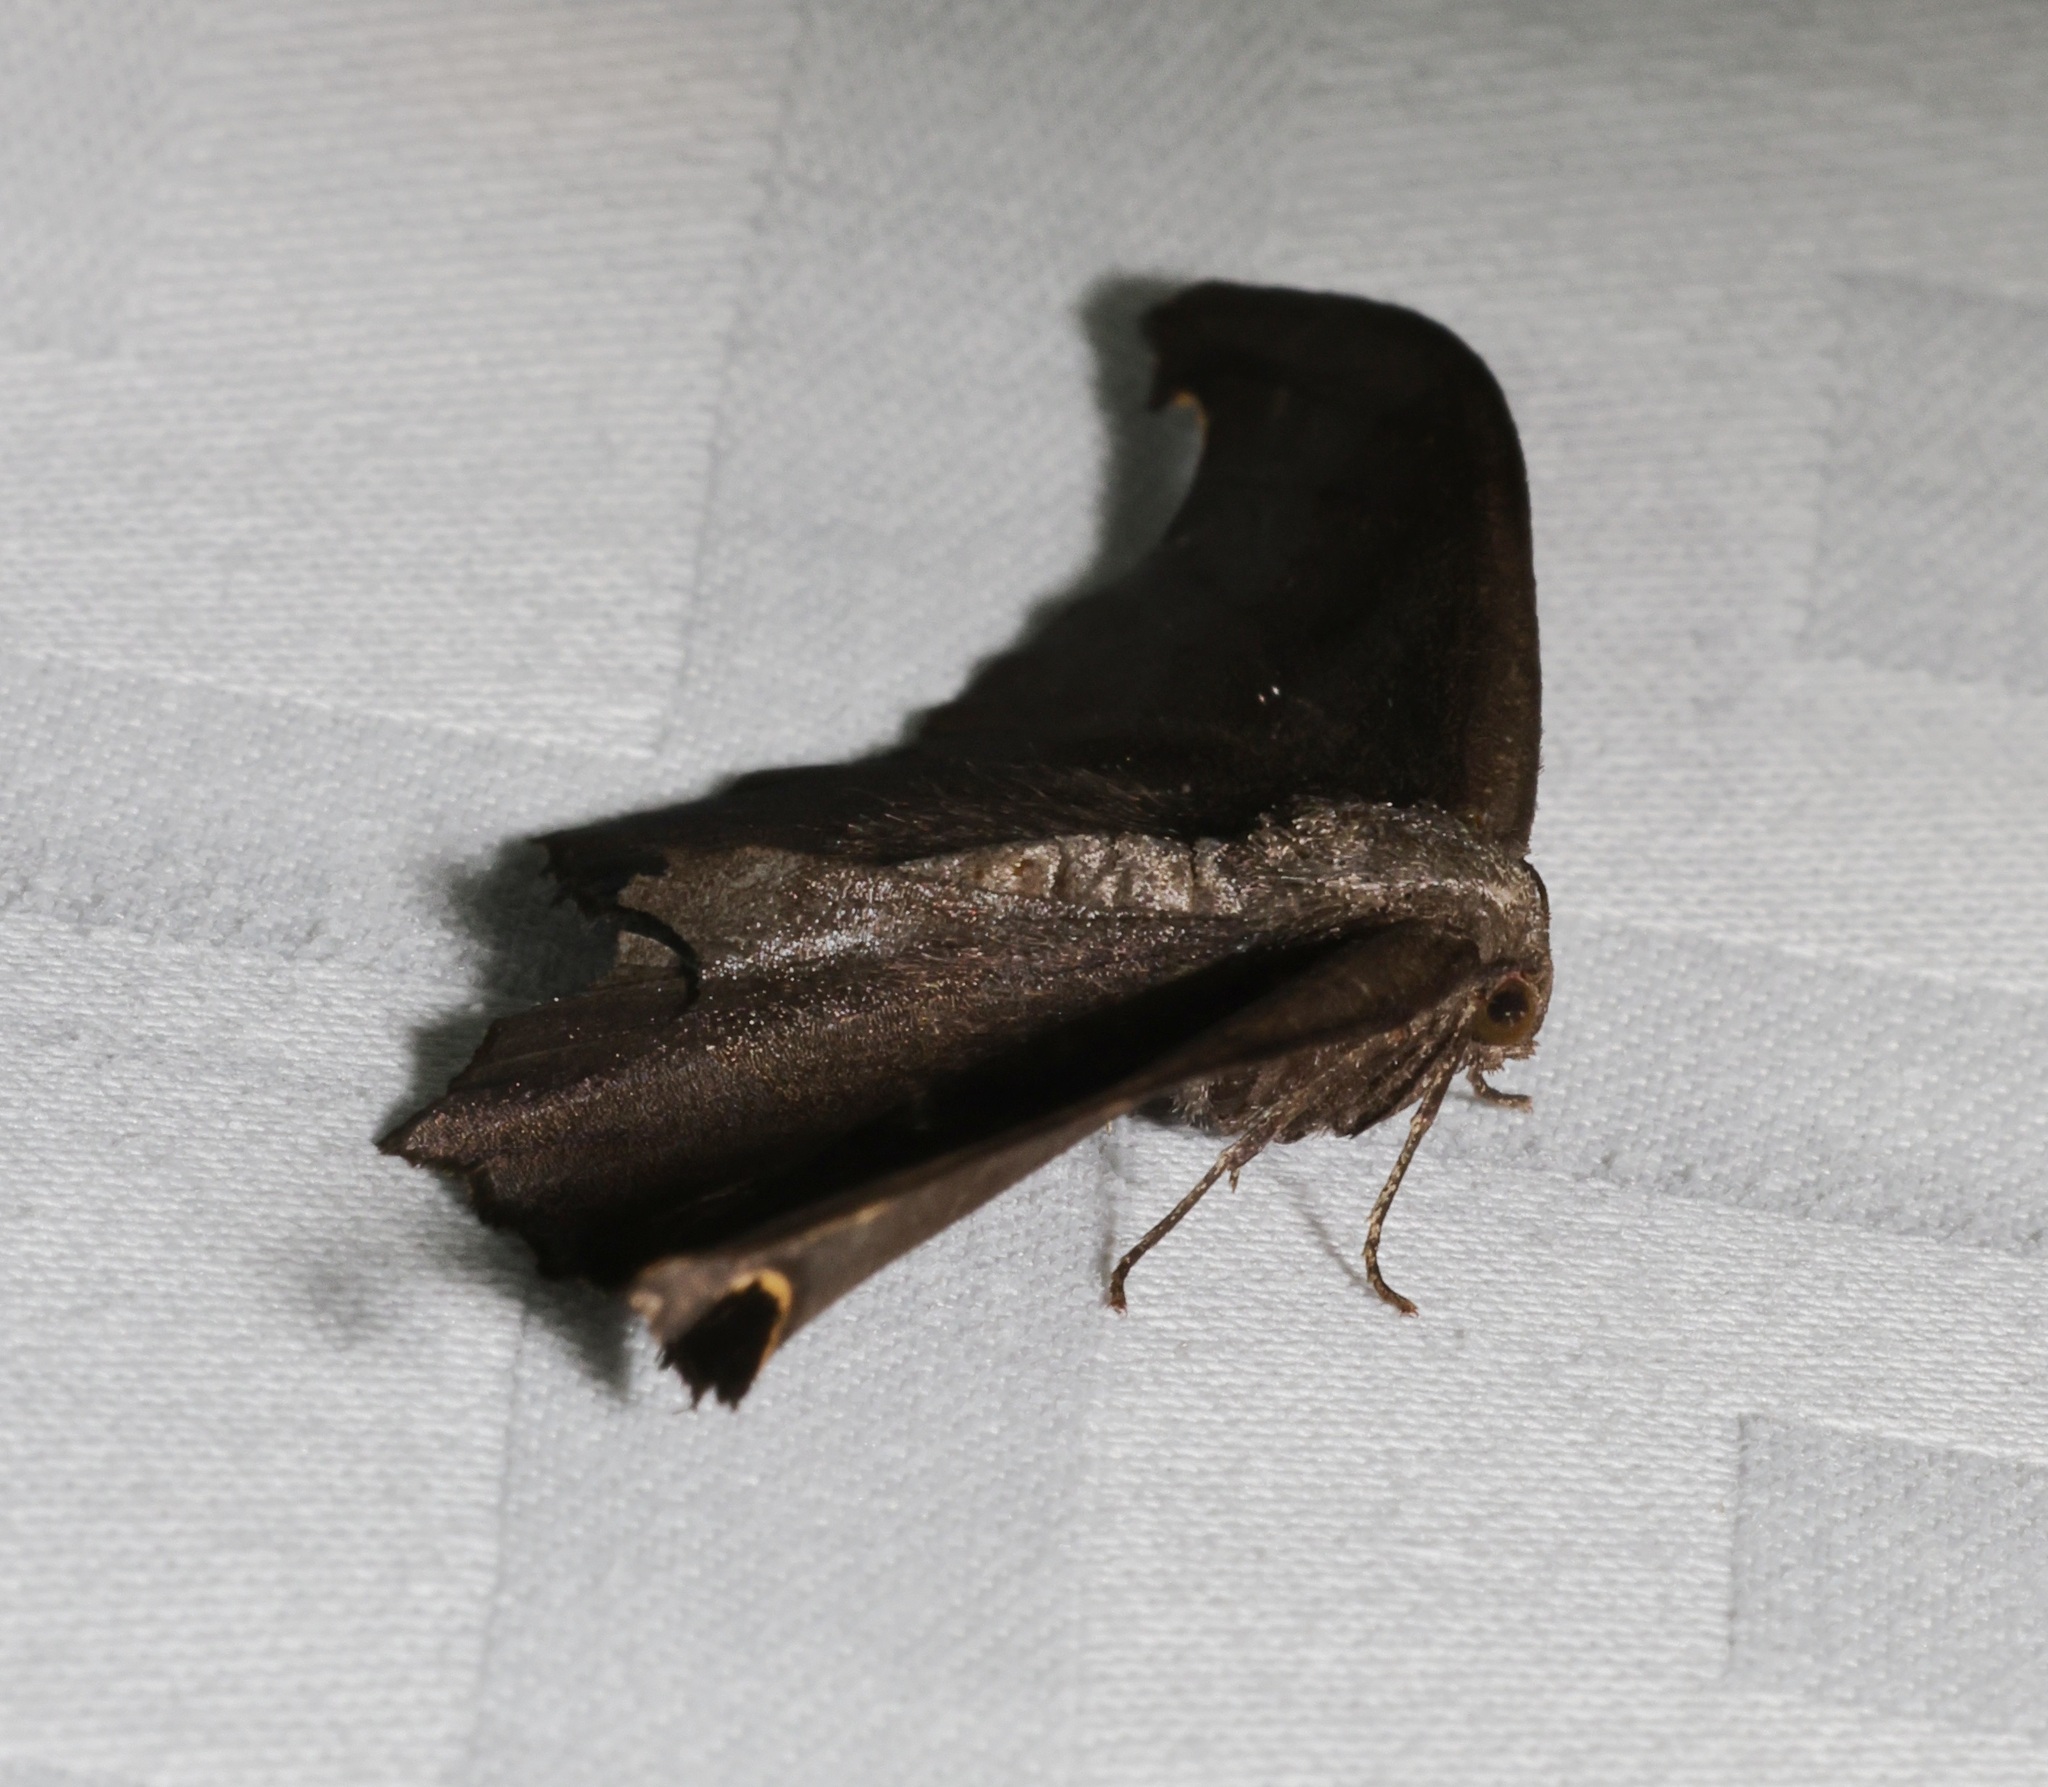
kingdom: Animalia
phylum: Arthropoda
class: Insecta
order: Lepidoptera
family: Geometridae
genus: Hyposidra
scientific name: Hyposidra talaca
